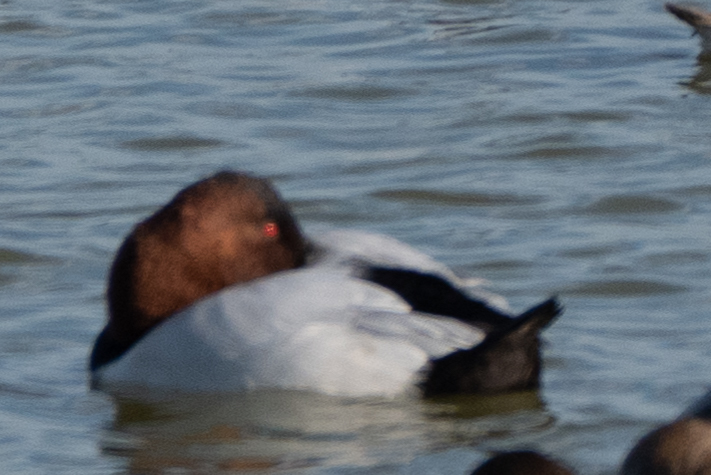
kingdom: Animalia
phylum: Chordata
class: Aves
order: Anseriformes
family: Anatidae
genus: Aythya
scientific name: Aythya valisineria
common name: Canvasback
